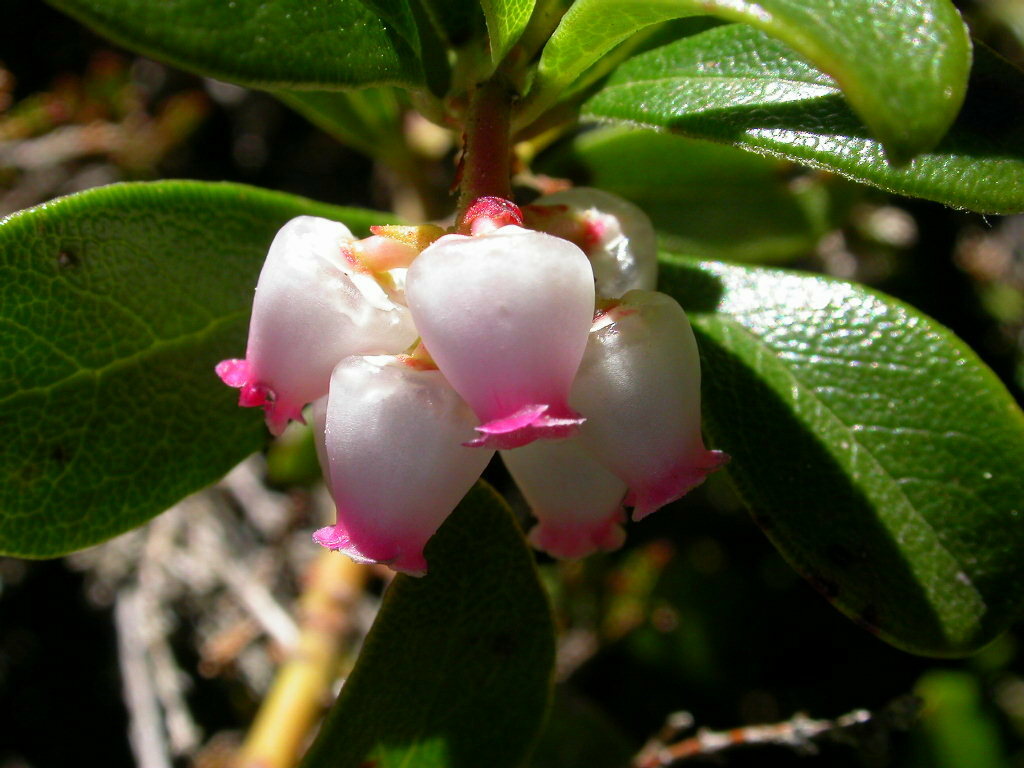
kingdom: Plantae
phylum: Tracheophyta
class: Magnoliopsida
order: Ericales
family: Ericaceae
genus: Arctostaphylos
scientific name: Arctostaphylos uva-ursi
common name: Bearberry
